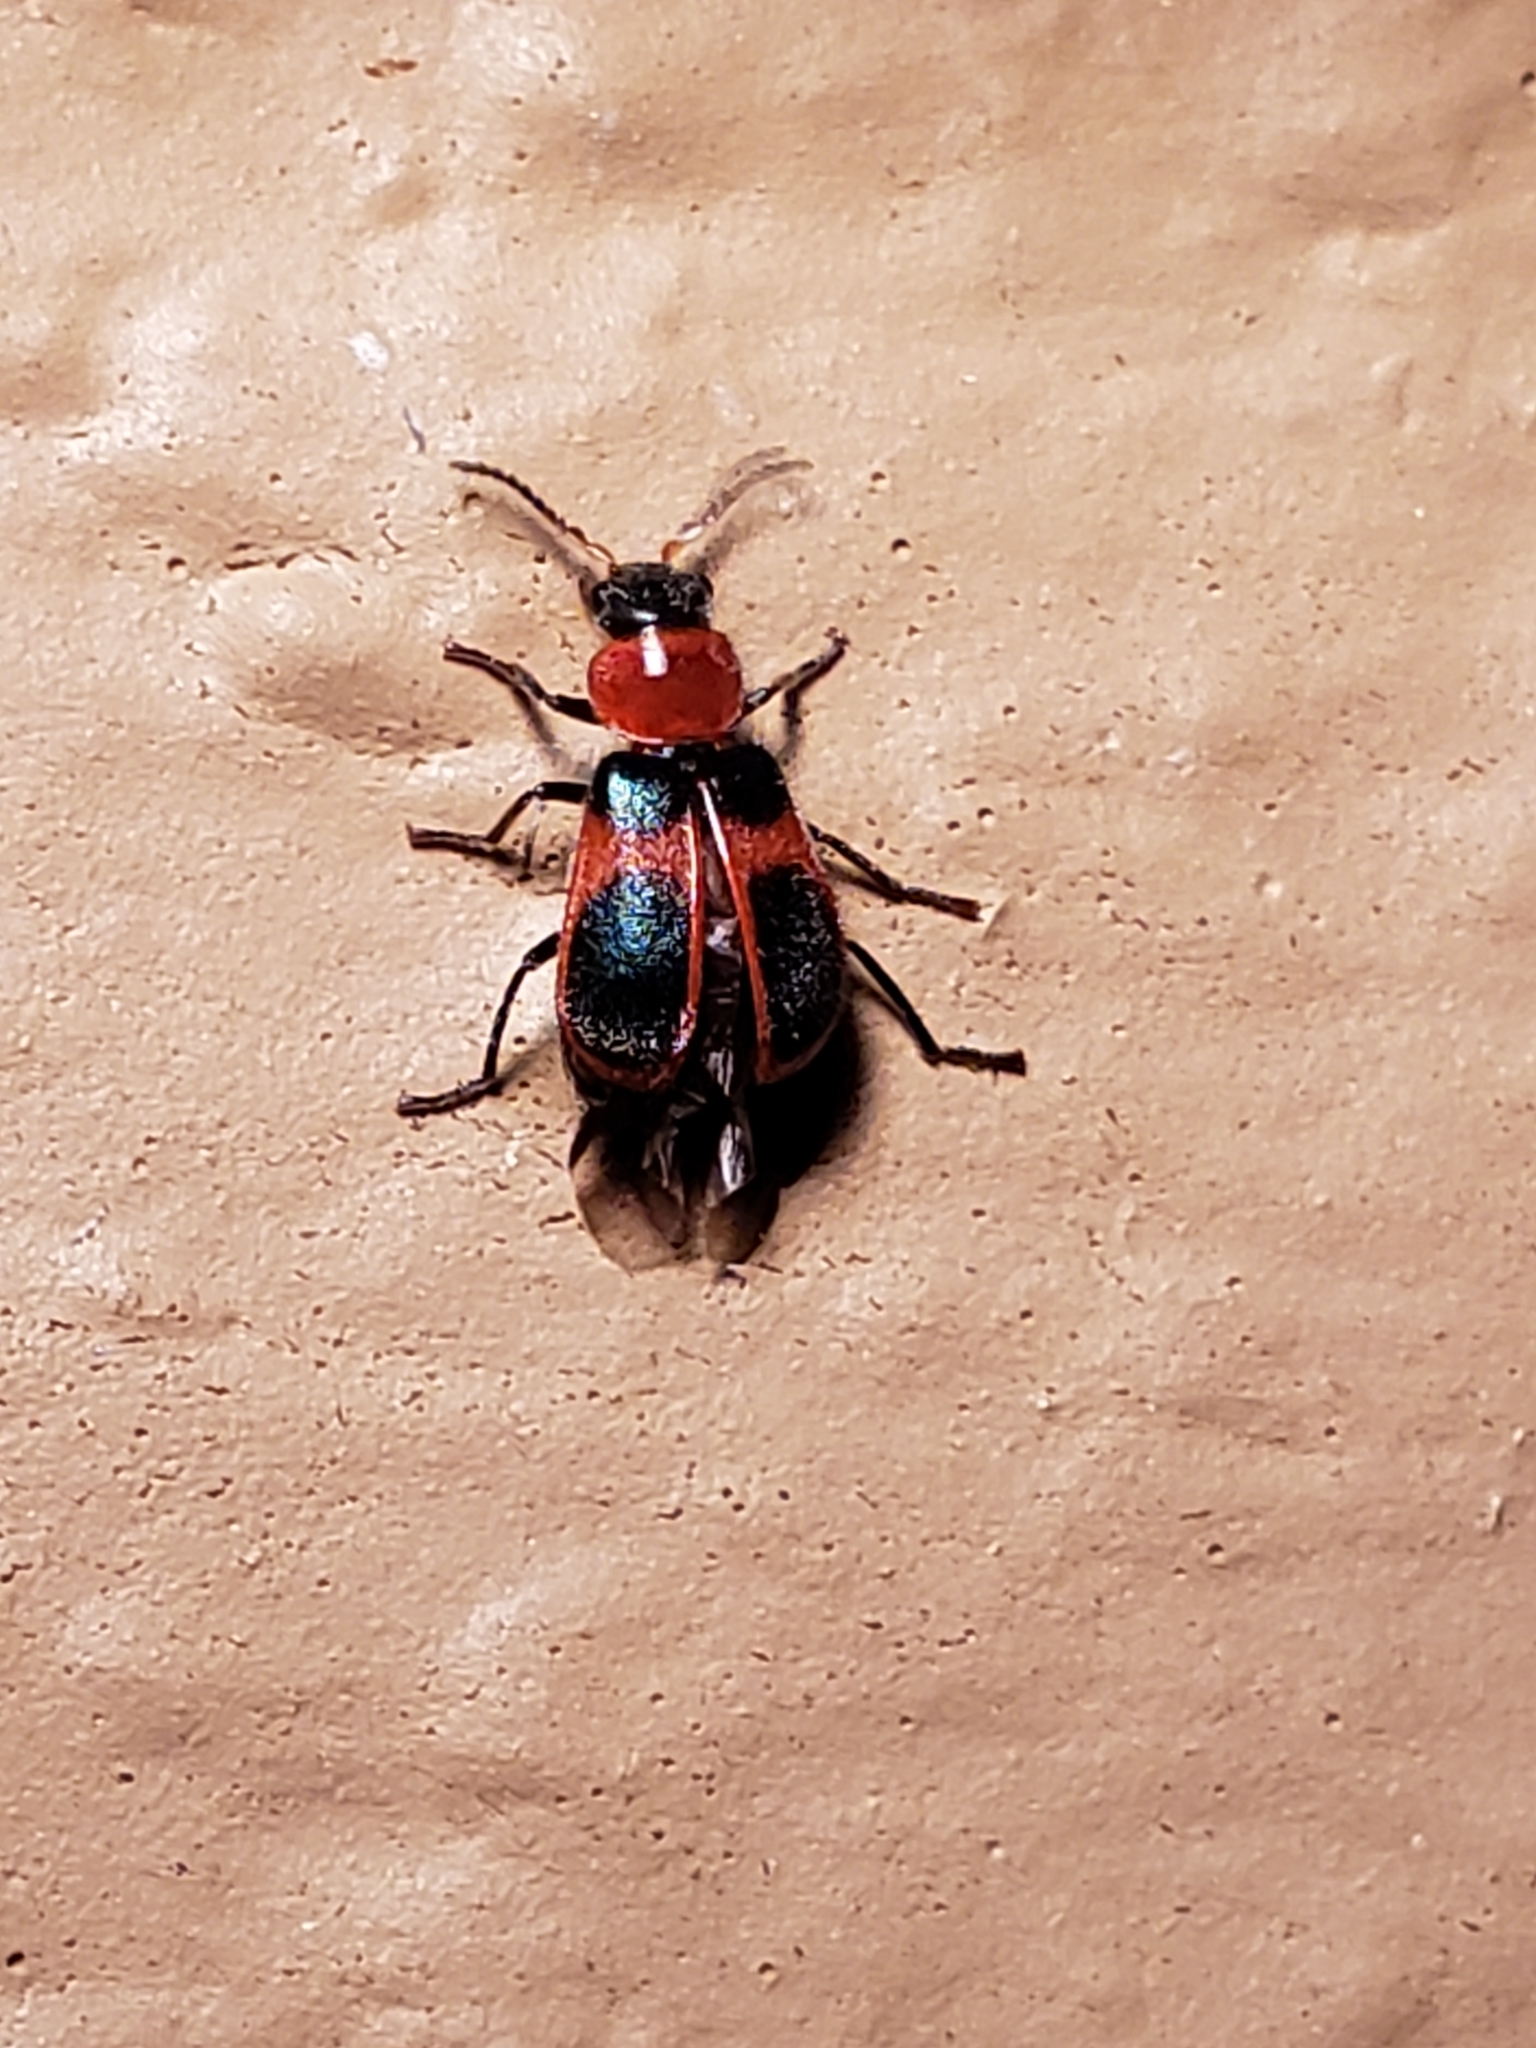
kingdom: Animalia
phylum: Arthropoda
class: Insecta
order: Coleoptera
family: Melyridae
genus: Collops
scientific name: Collops quadrimaculatus
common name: Four-spotted collops
